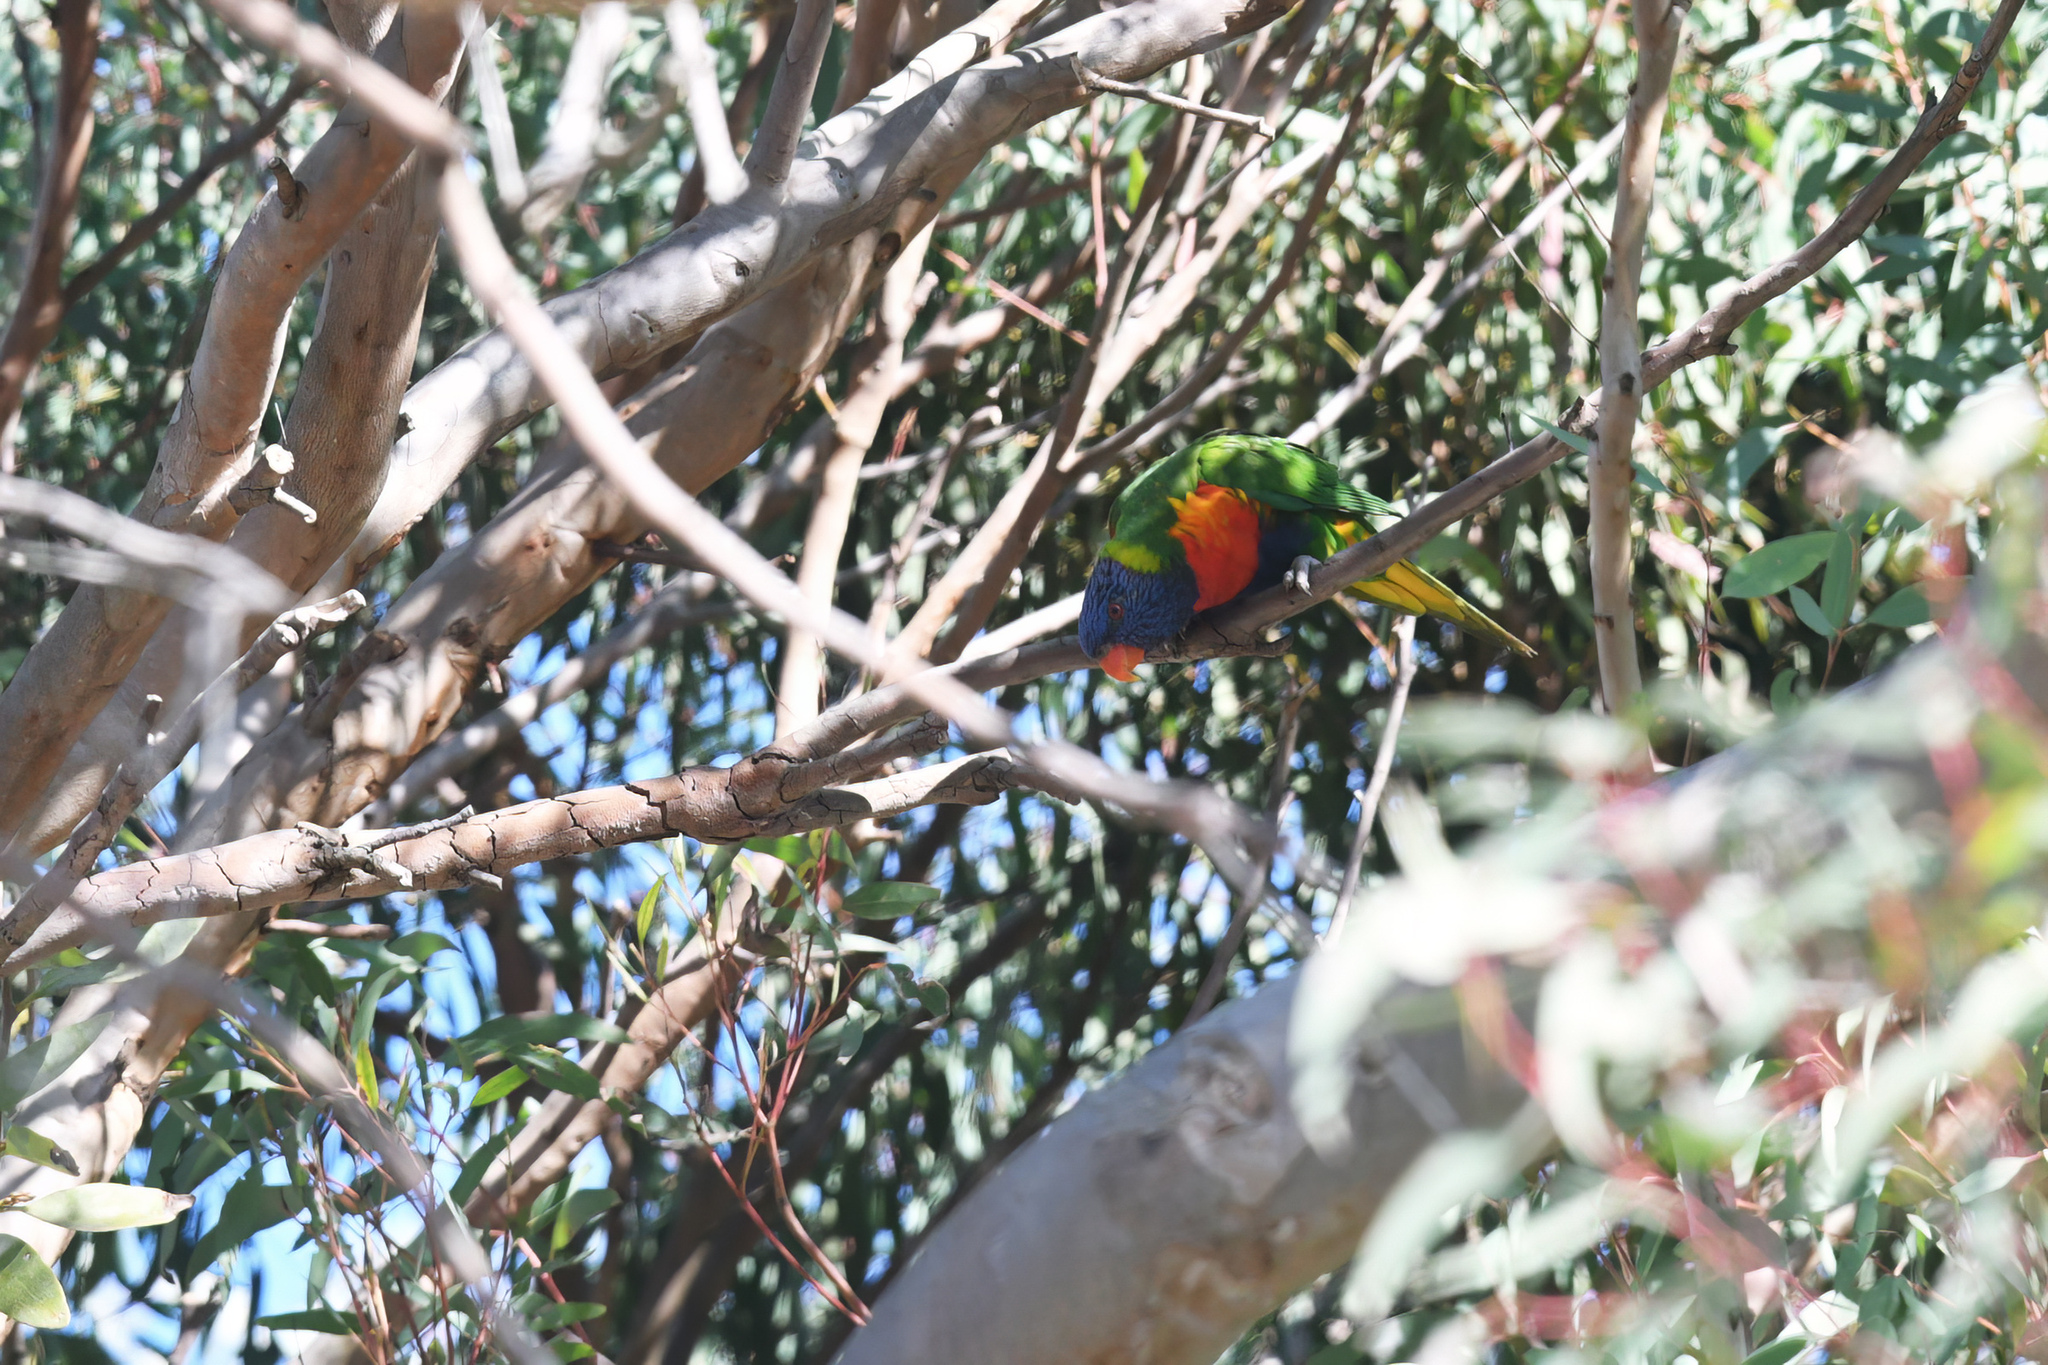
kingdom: Animalia
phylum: Chordata
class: Aves
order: Psittaciformes
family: Psittacidae
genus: Trichoglossus
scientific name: Trichoglossus haematodus
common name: Coconut lorikeet
